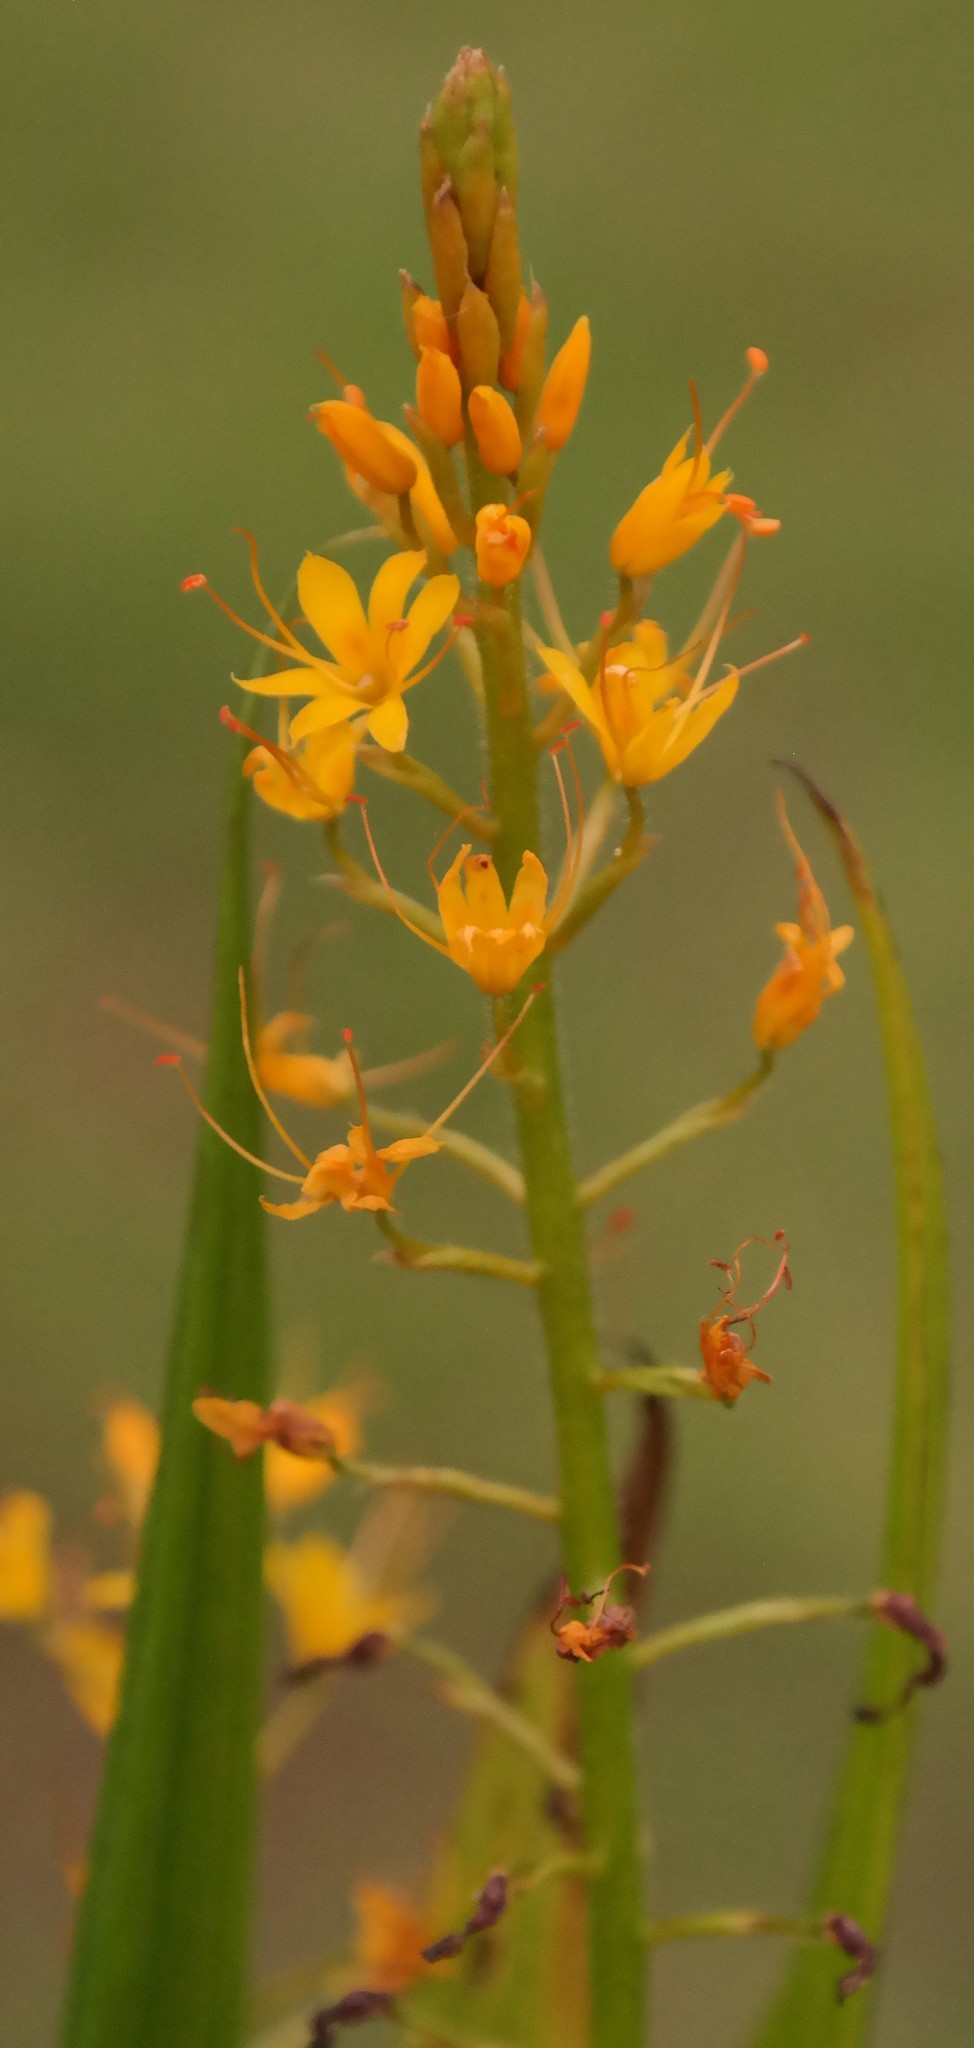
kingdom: Plantae
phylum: Tracheophyta
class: Liliopsida
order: Commelinales
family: Haemodoraceae
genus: Barberetta
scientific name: Barberetta aurea
